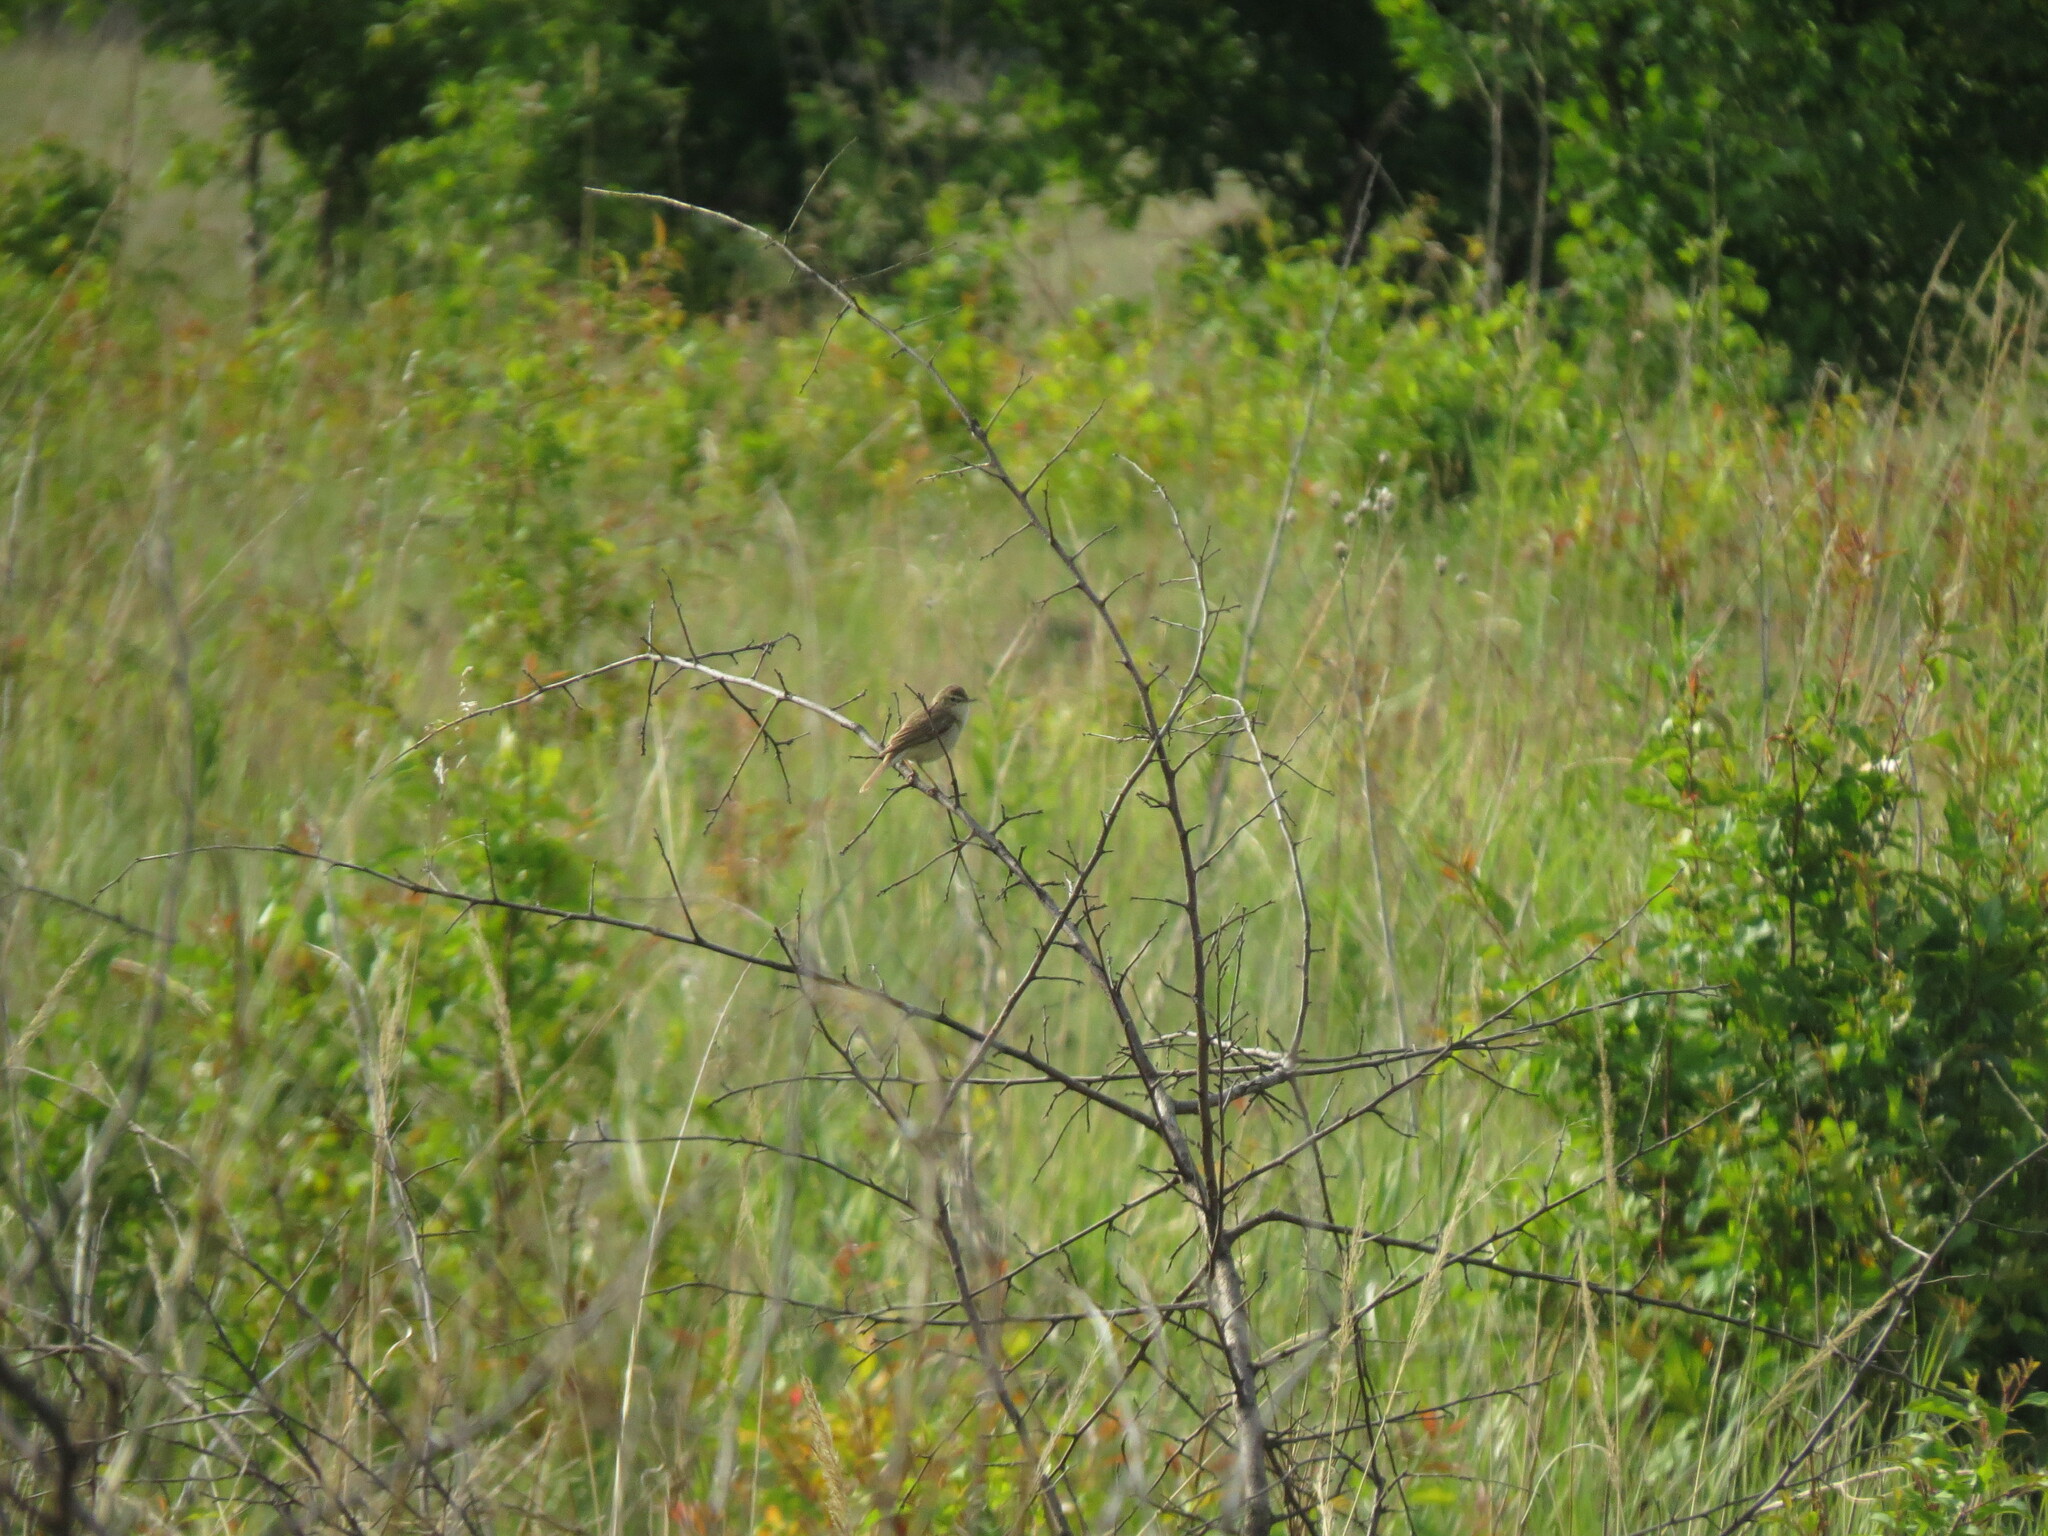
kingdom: Animalia
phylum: Chordata
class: Aves
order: Passeriformes
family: Acrocephalidae
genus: Iduna
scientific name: Iduna caligata
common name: Booted warbler
